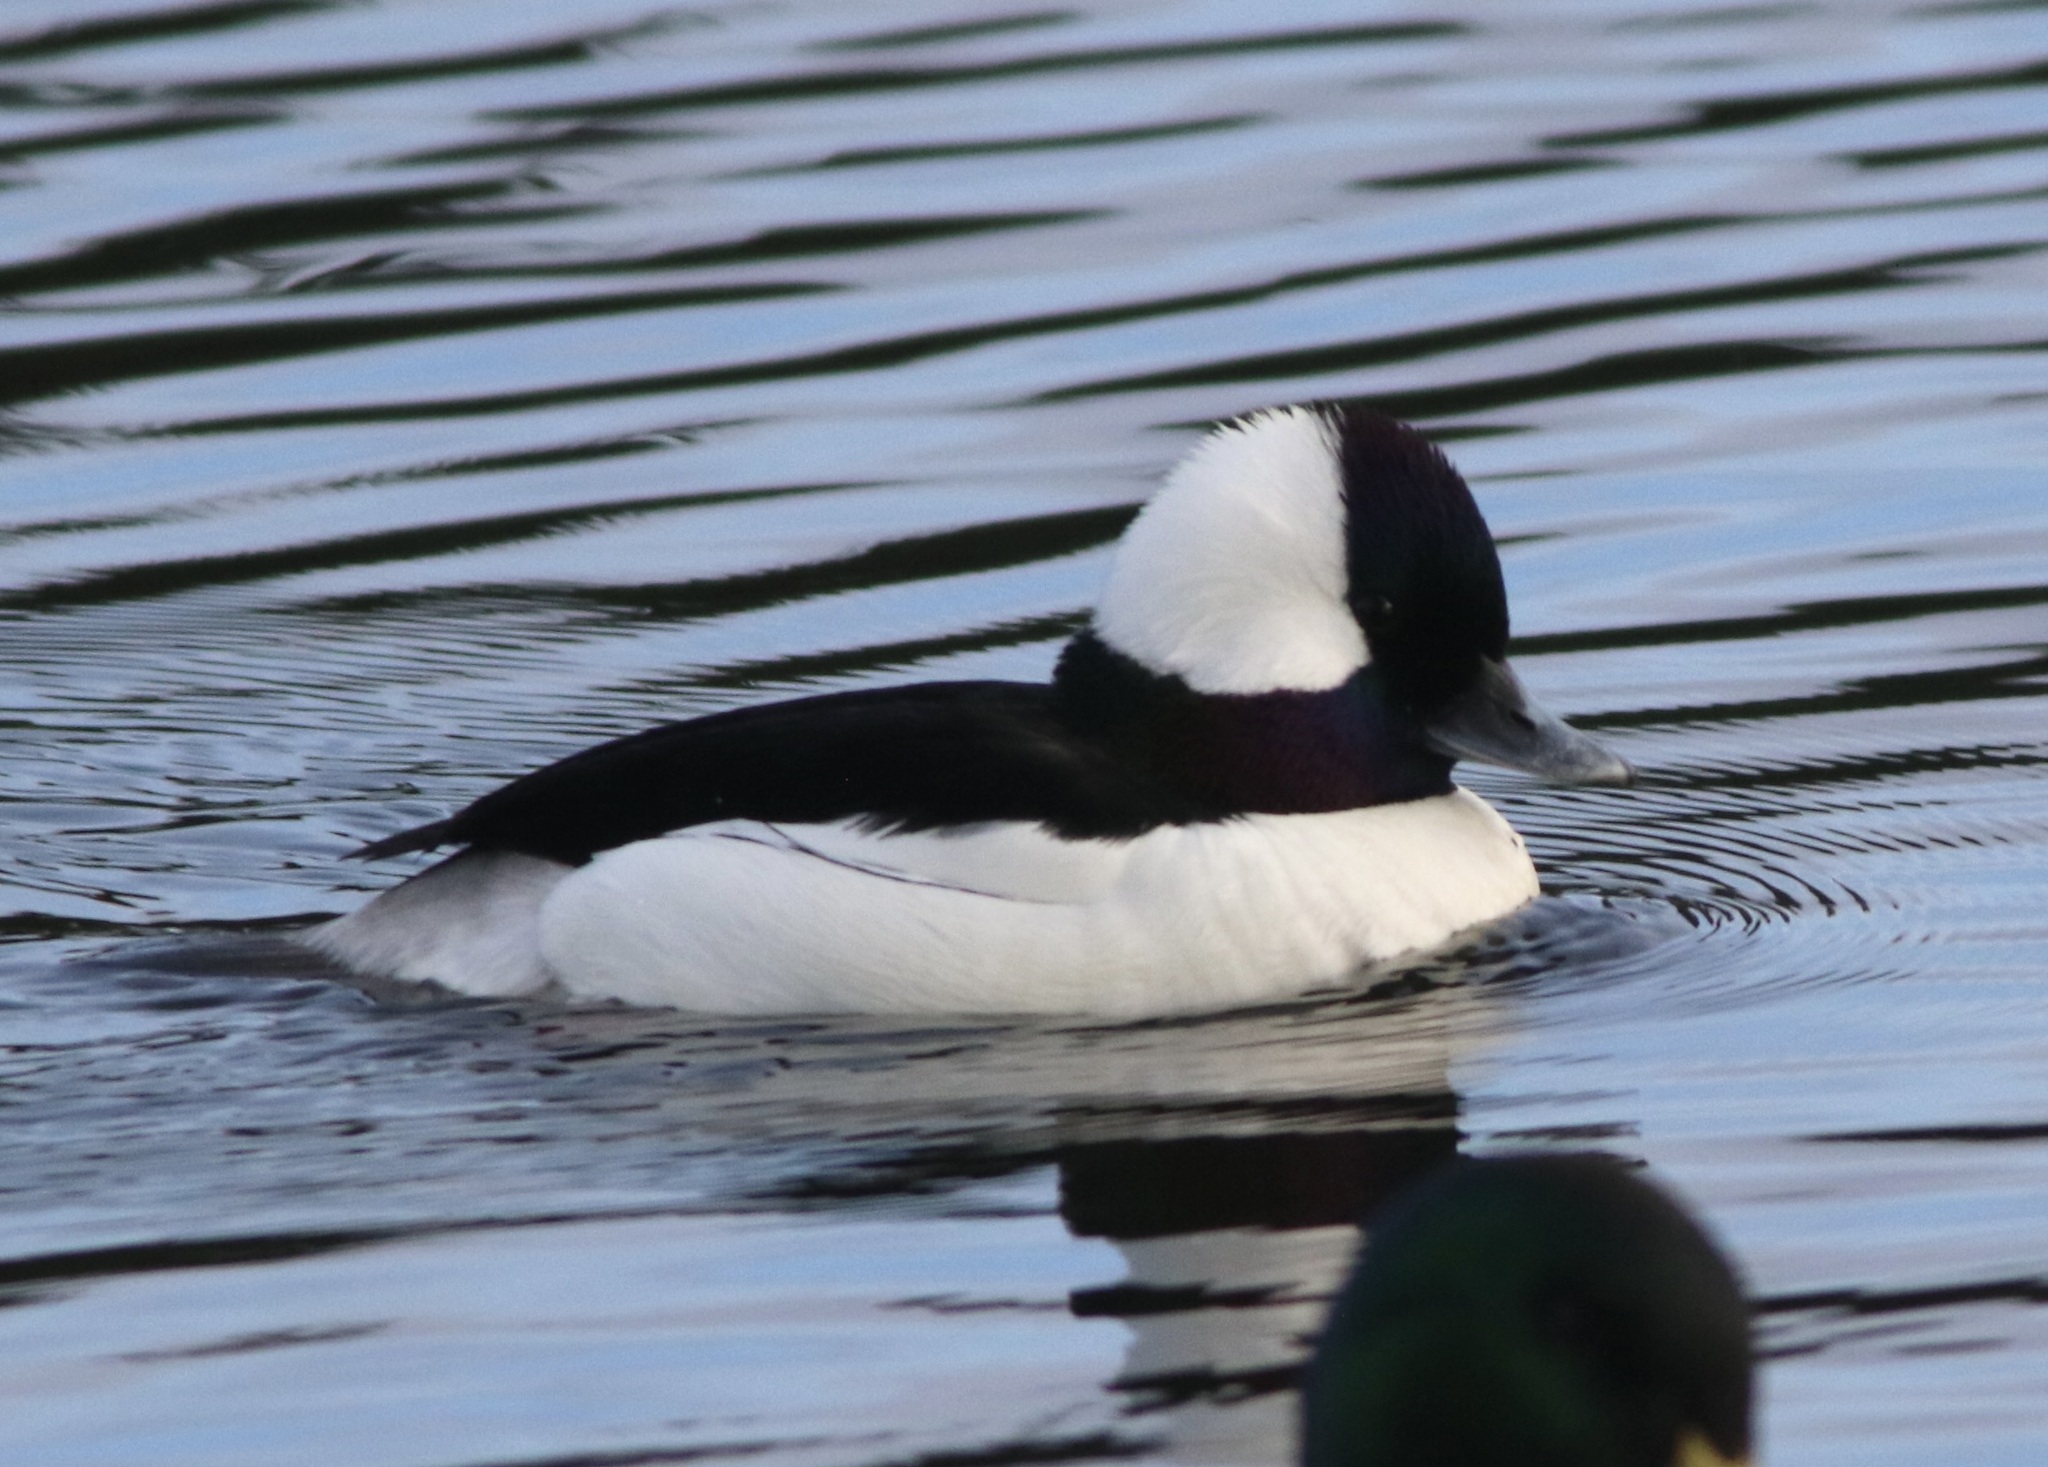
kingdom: Animalia
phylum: Chordata
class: Aves
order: Anseriformes
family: Anatidae
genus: Bucephala
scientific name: Bucephala albeola
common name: Bufflehead
